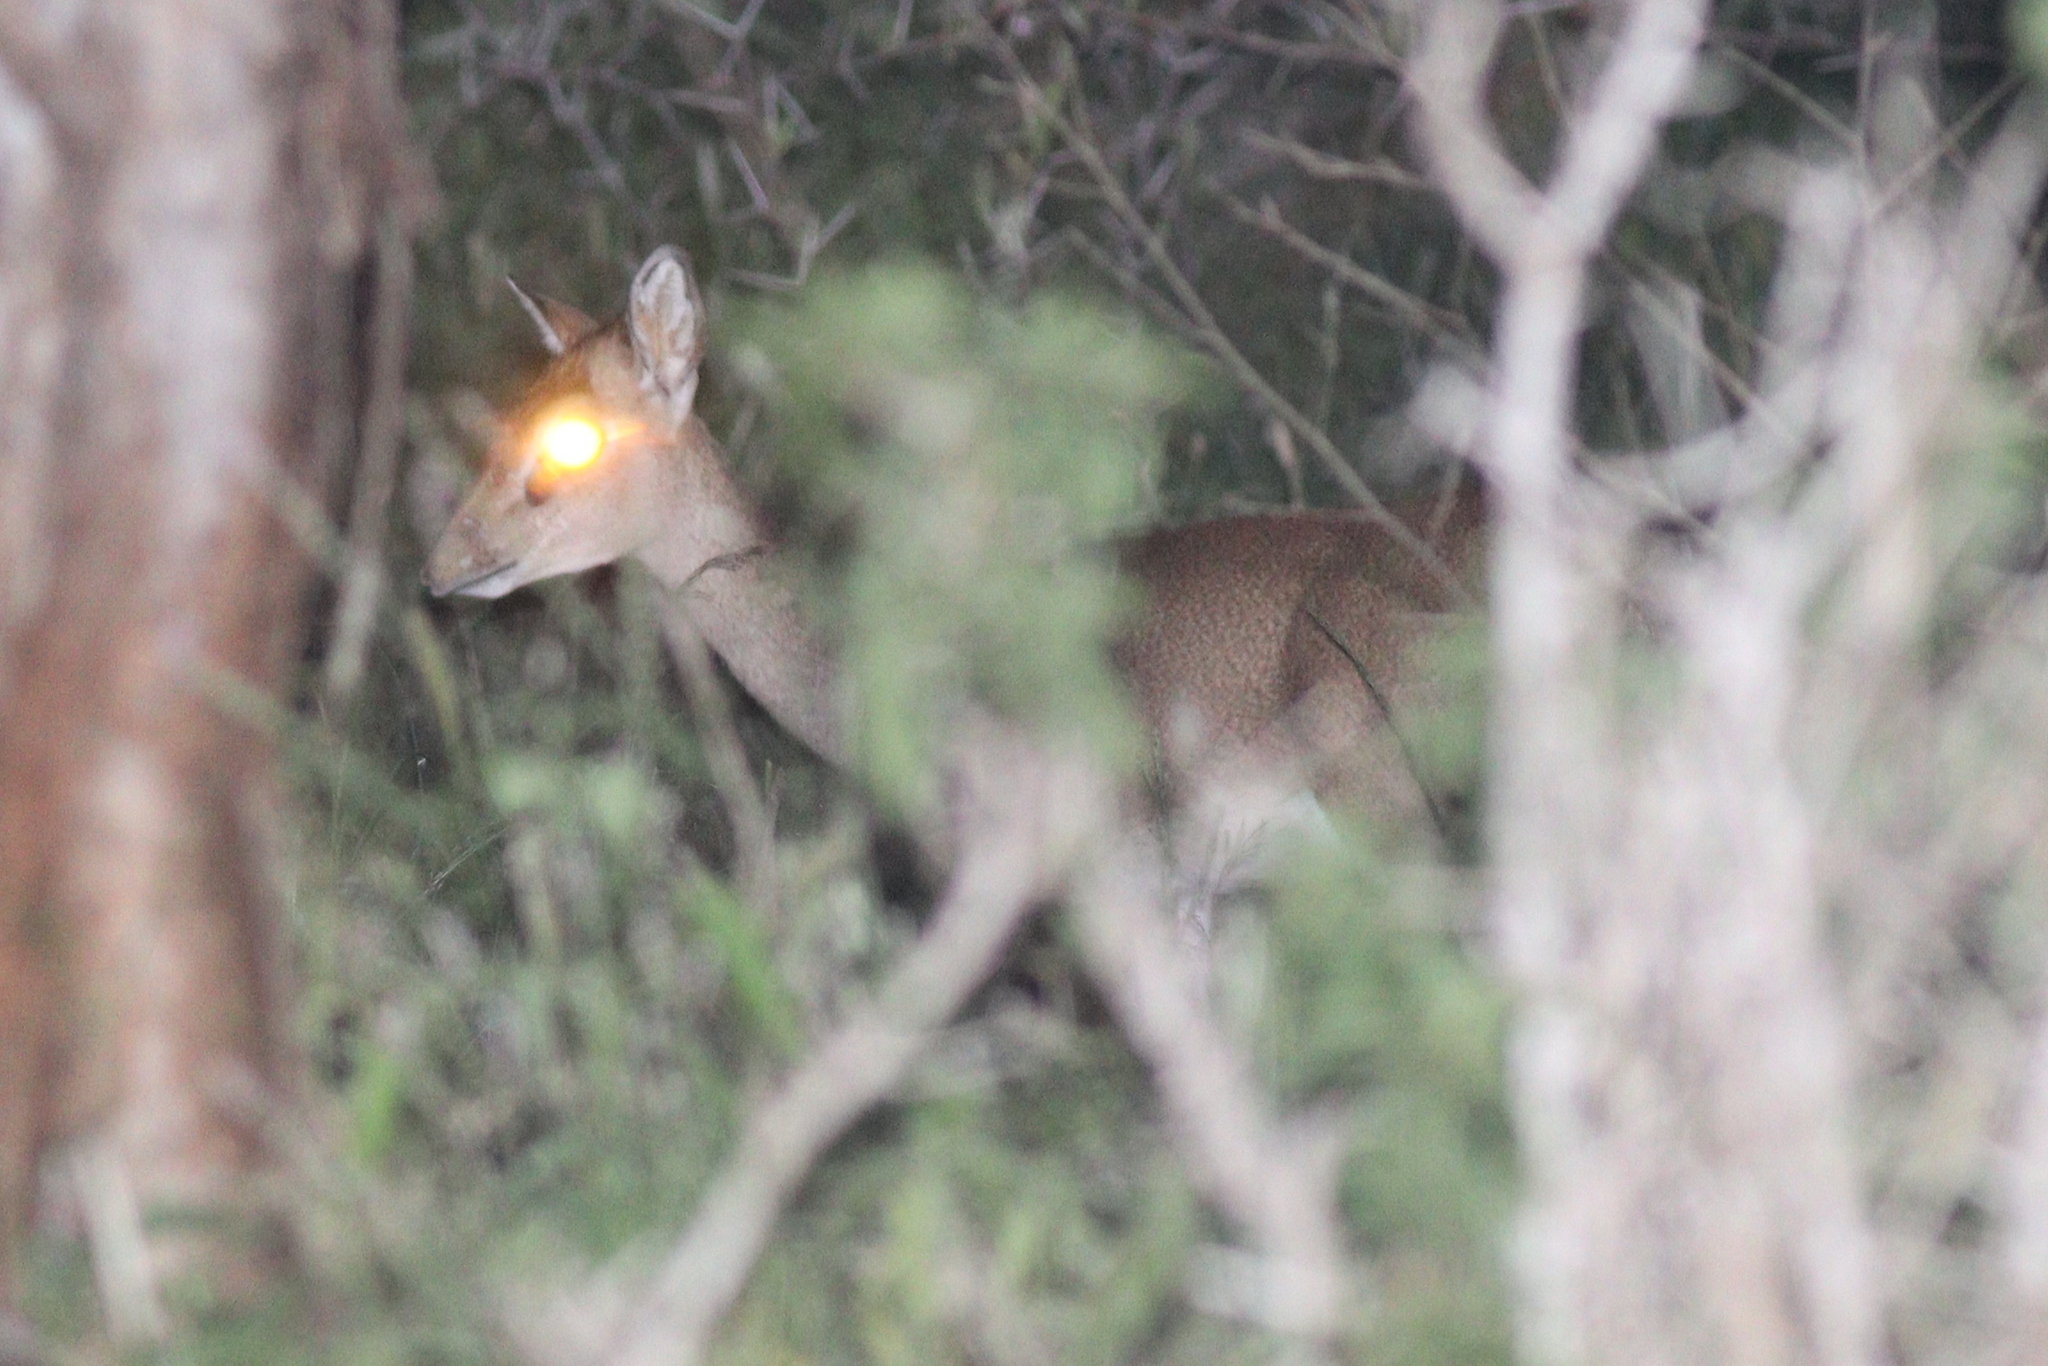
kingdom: Animalia
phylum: Chordata
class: Mammalia
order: Artiodactyla
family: Bovidae
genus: Madoqua
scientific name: Madoqua
